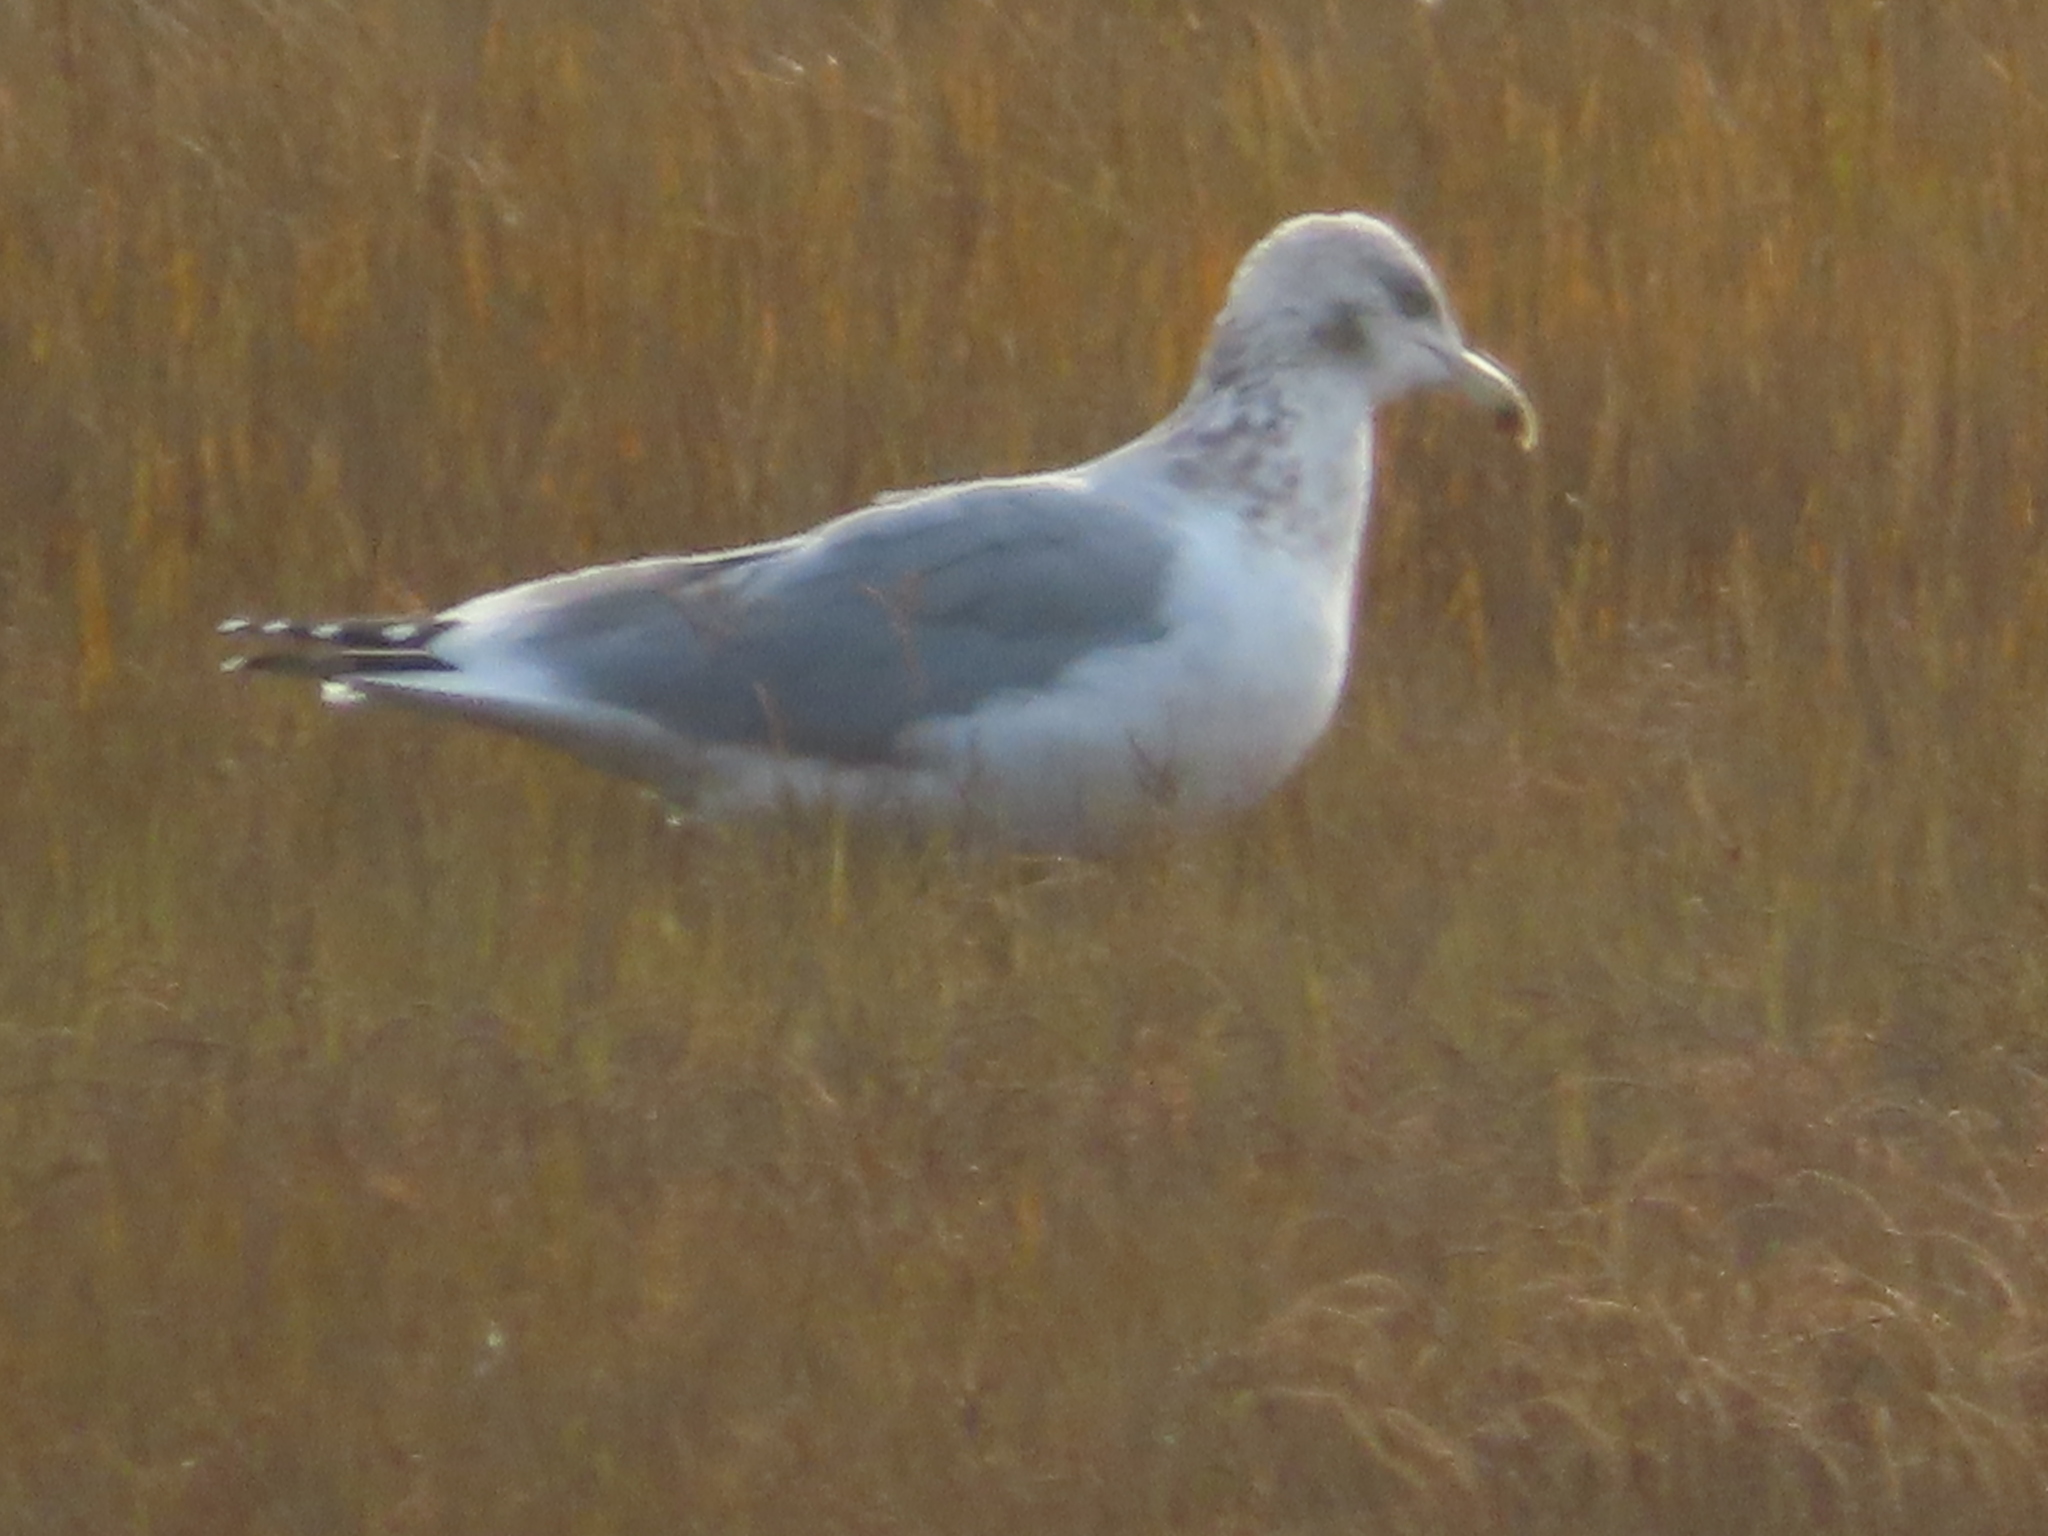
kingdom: Animalia
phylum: Chordata
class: Aves
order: Charadriiformes
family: Laridae
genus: Larus
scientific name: Larus argentatus
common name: Herring gull
